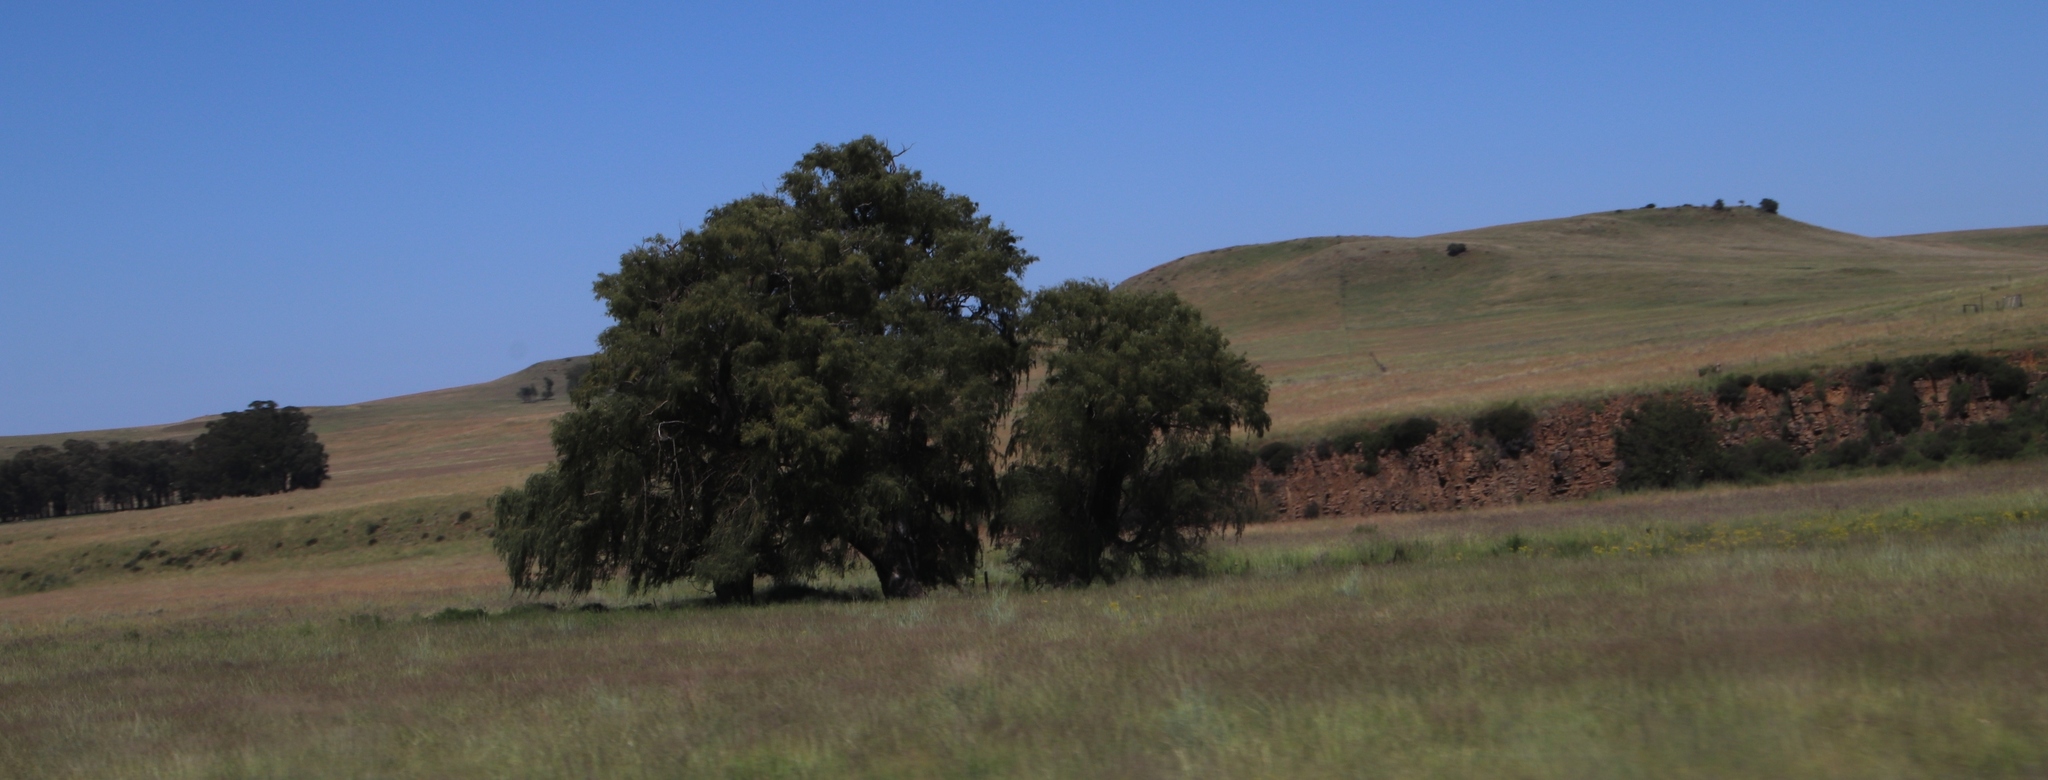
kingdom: Plantae
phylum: Tracheophyta
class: Magnoliopsida
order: Malpighiales
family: Salicaceae
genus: Salix
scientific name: Salix babylonica
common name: Weeping willow
